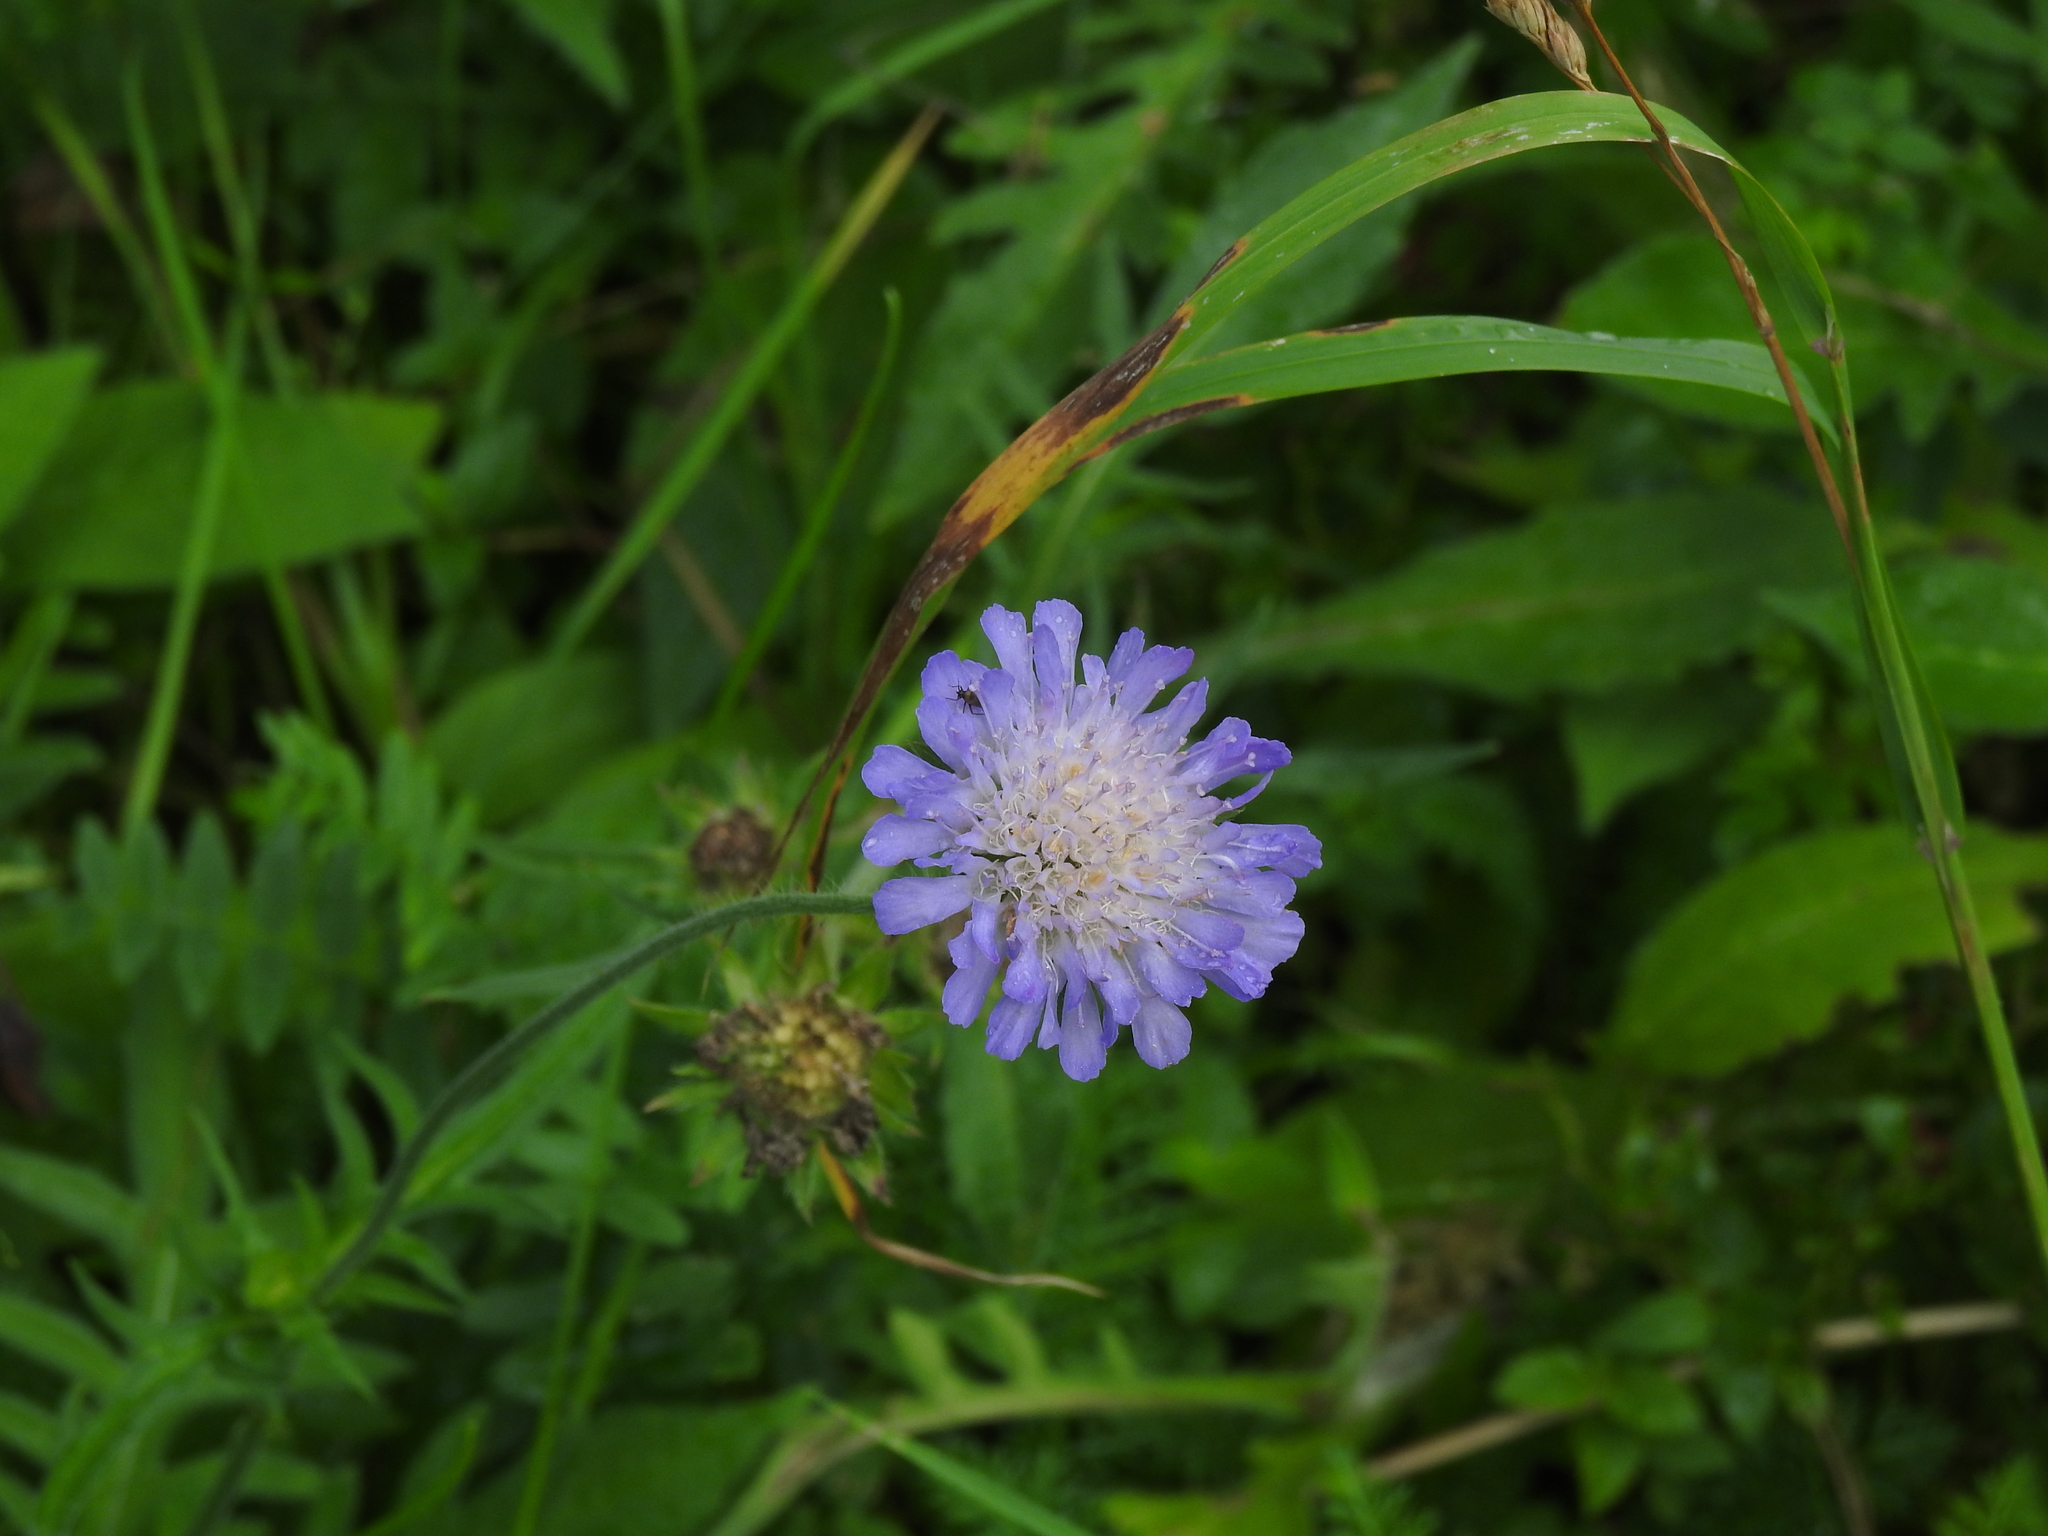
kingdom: Plantae
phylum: Tracheophyta
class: Magnoliopsida
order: Dipsacales
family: Caprifoliaceae
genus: Knautia
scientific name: Knautia arvensis
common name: Field scabiosa
